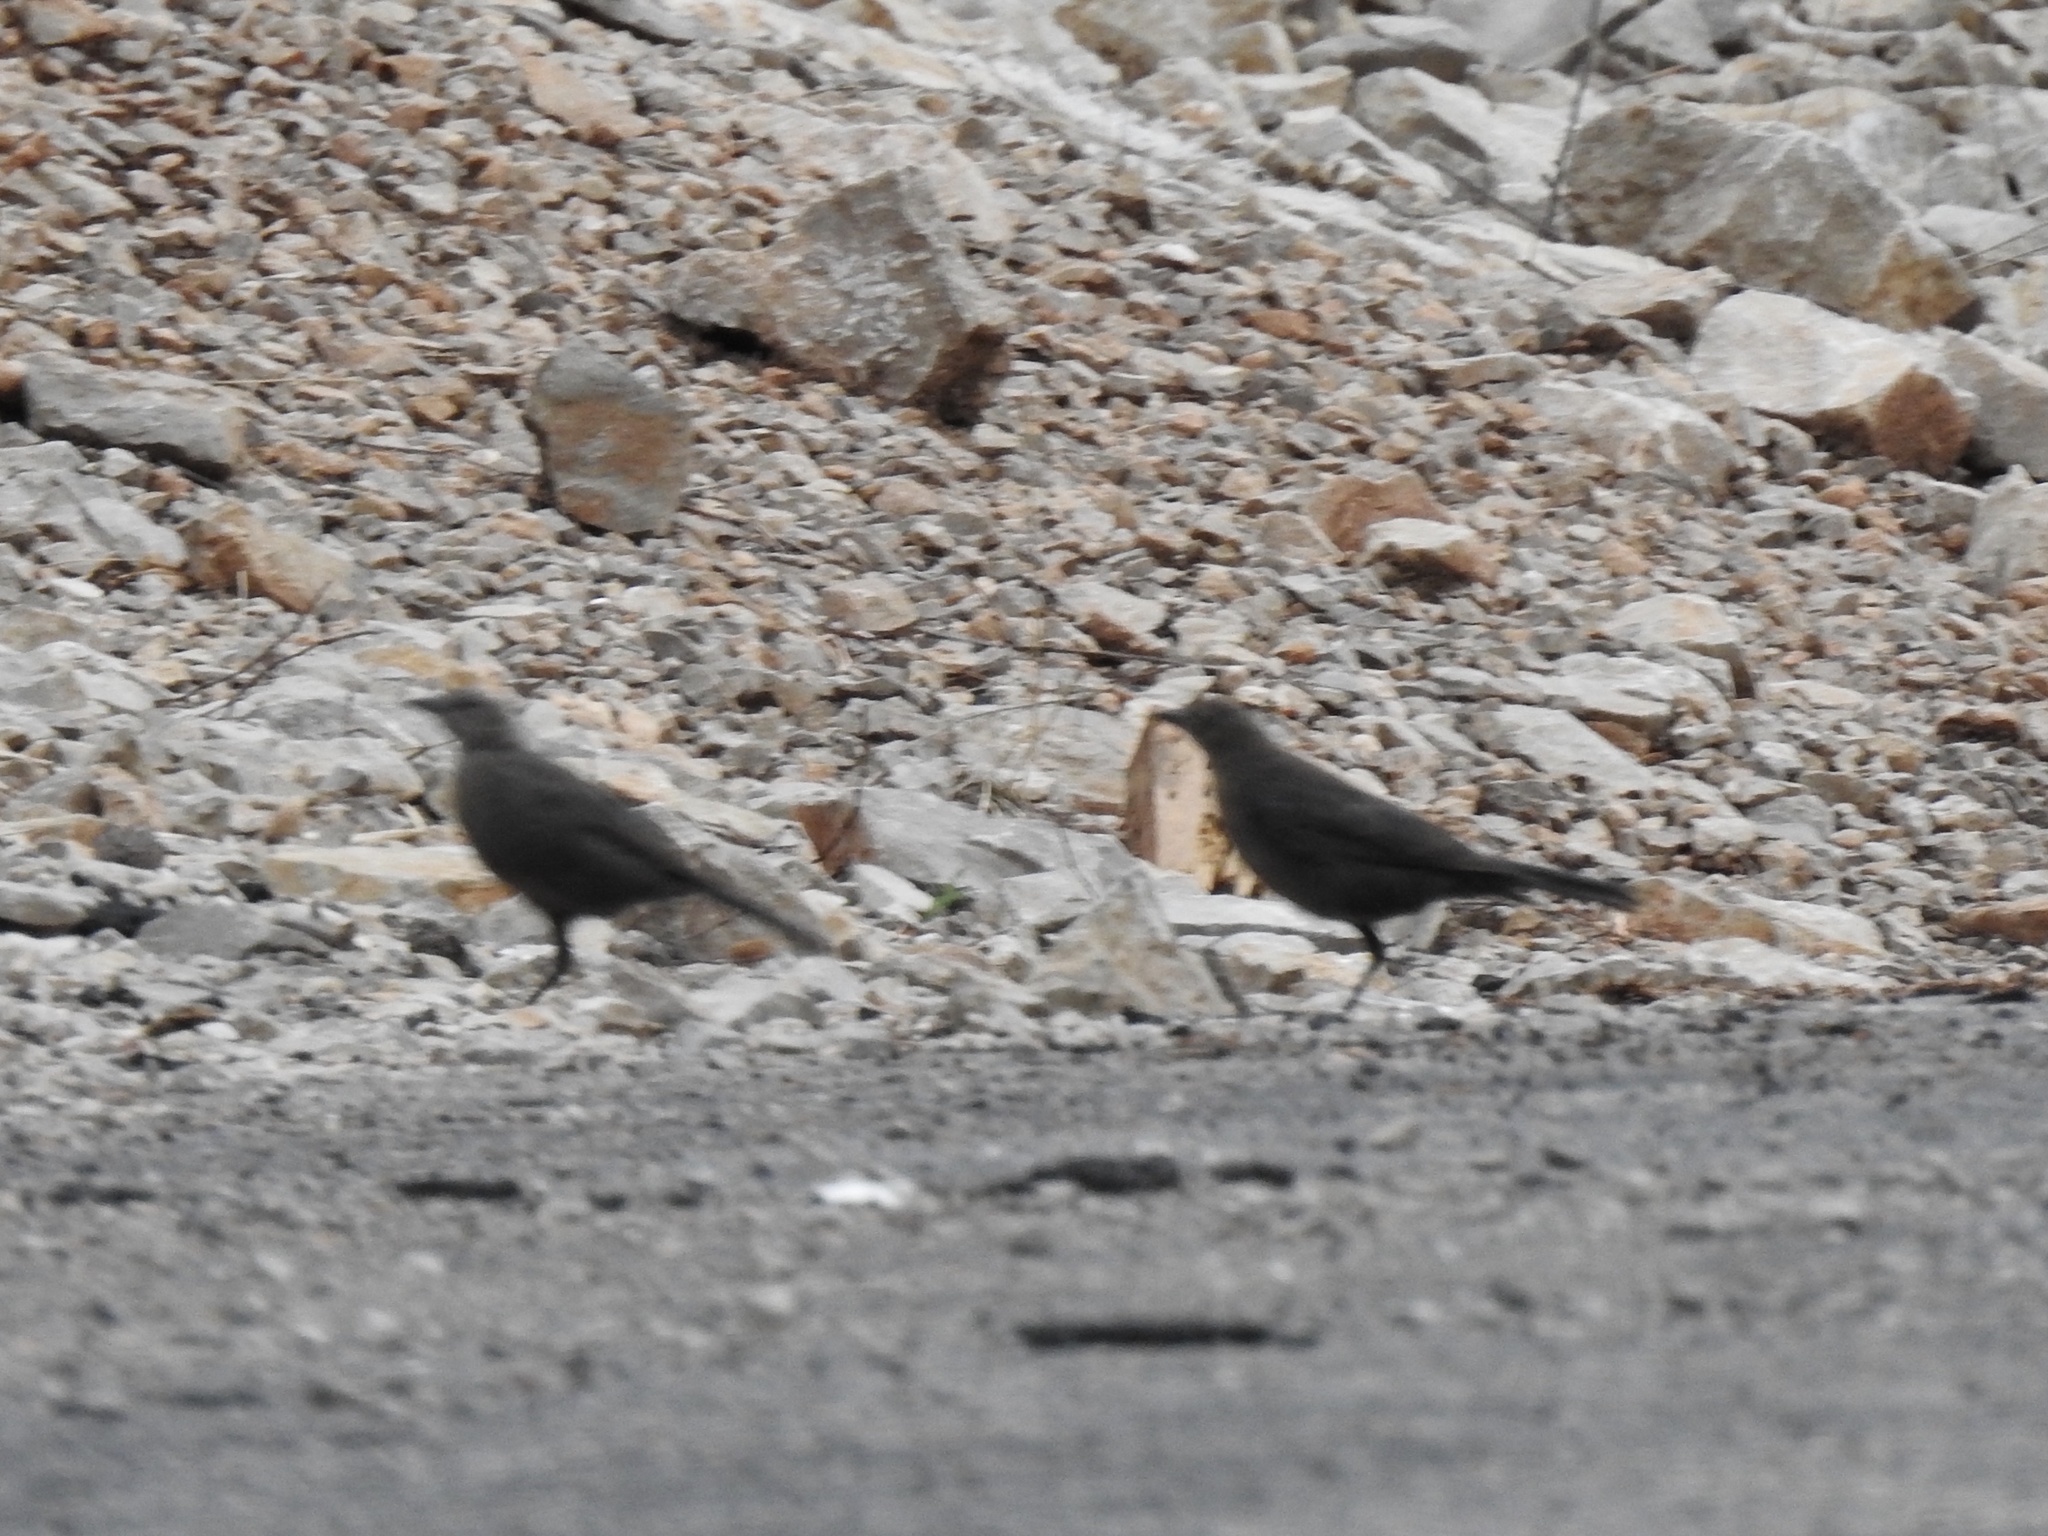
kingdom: Animalia
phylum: Chordata
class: Aves
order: Passeriformes
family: Icteridae
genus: Euphagus
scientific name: Euphagus cyanocephalus
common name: Brewer's blackbird
